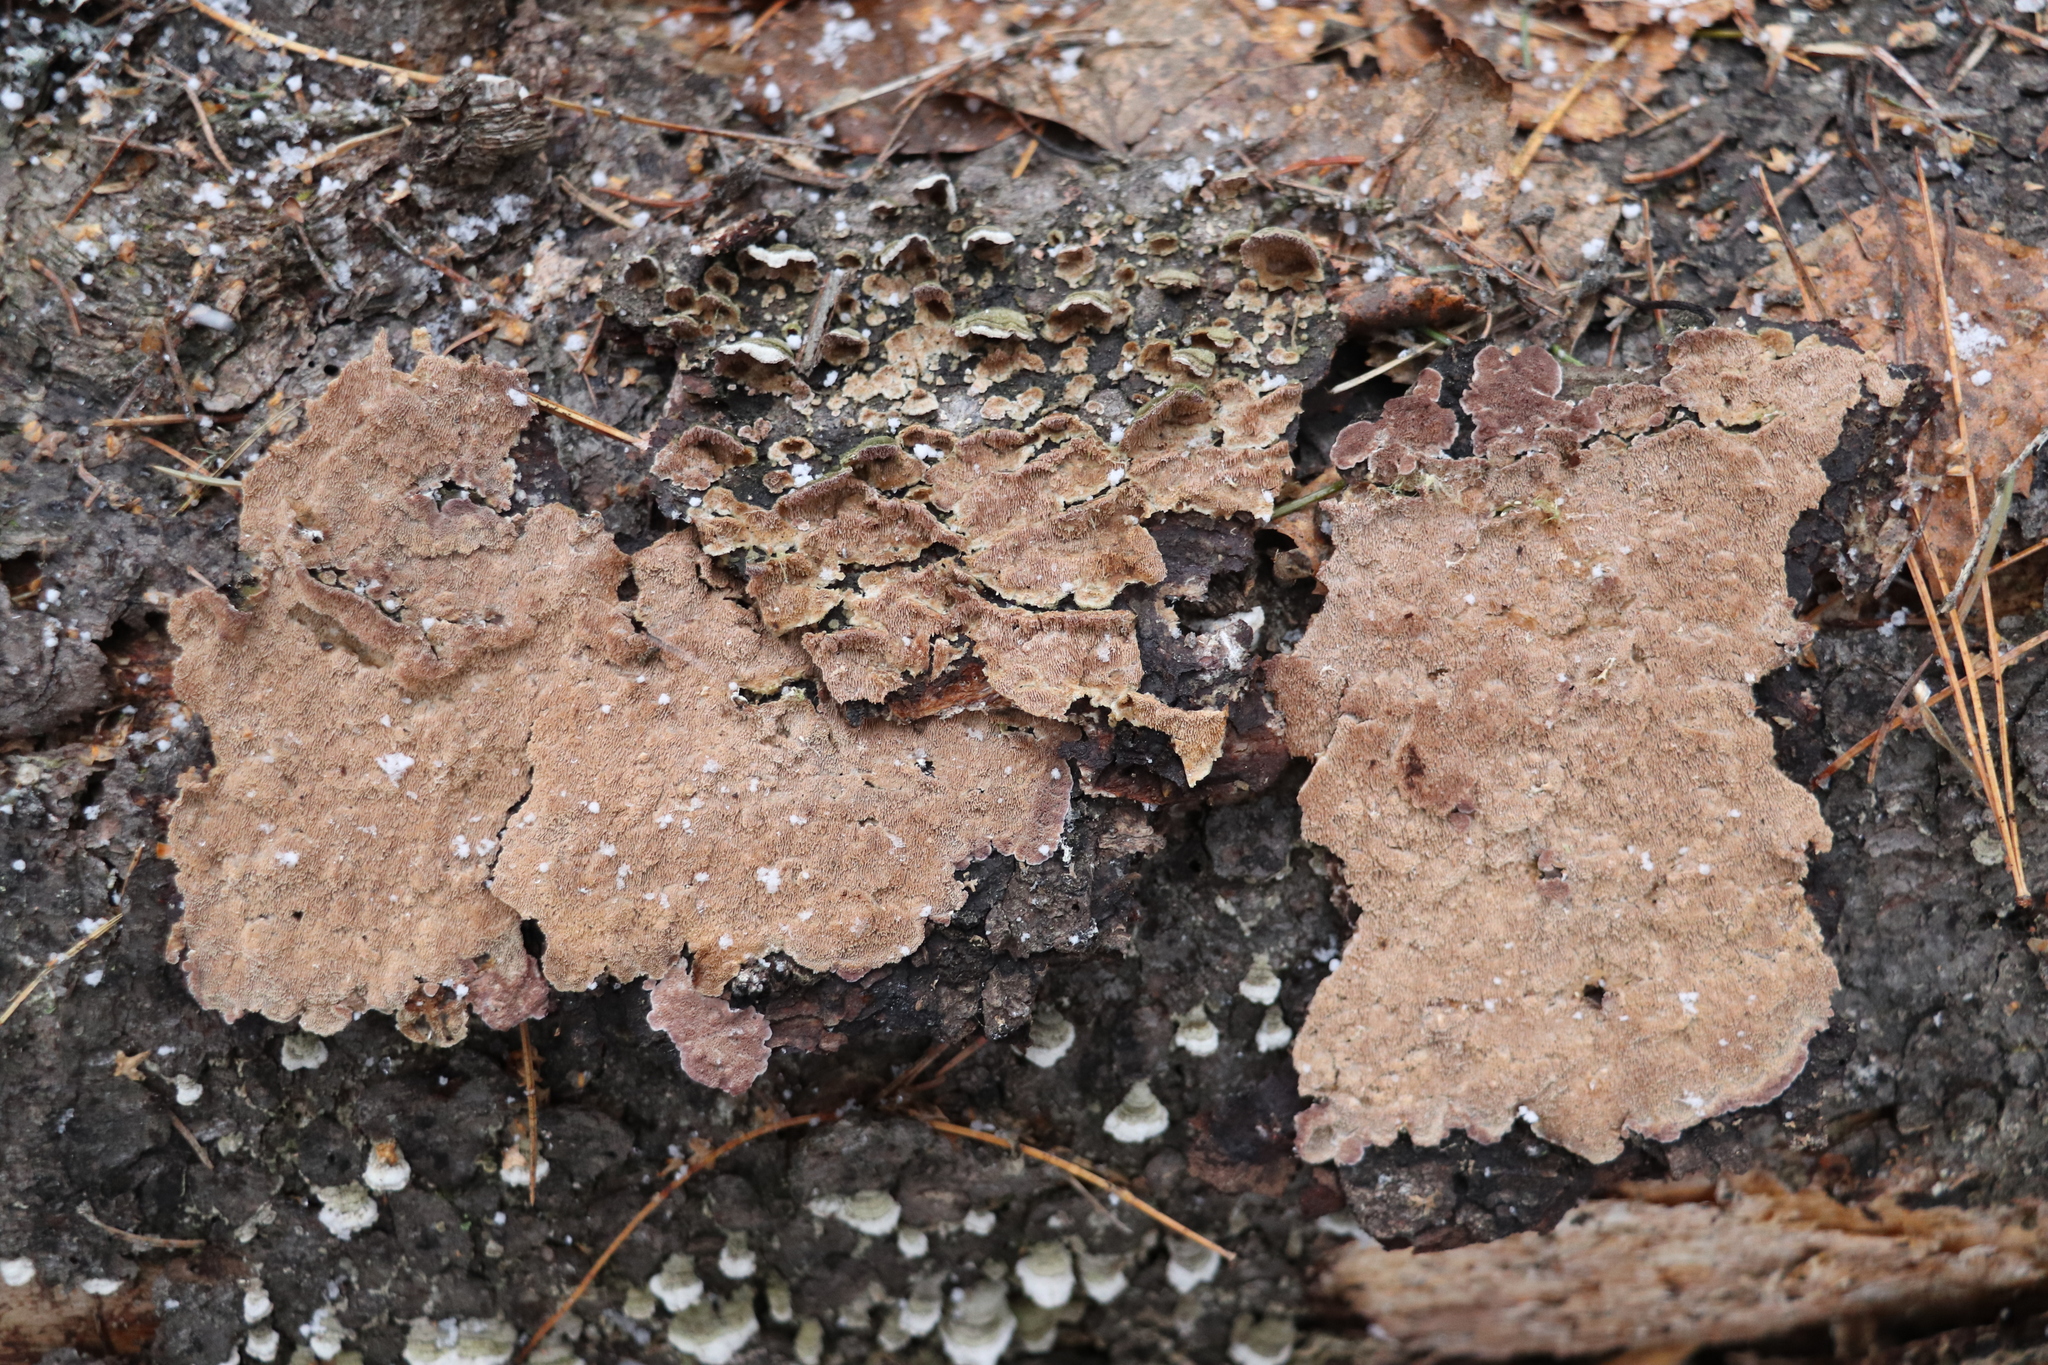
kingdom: Fungi
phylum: Basidiomycota
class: Agaricomycetes
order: Hymenochaetales
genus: Trichaptum
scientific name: Trichaptum fuscoviolaceum
